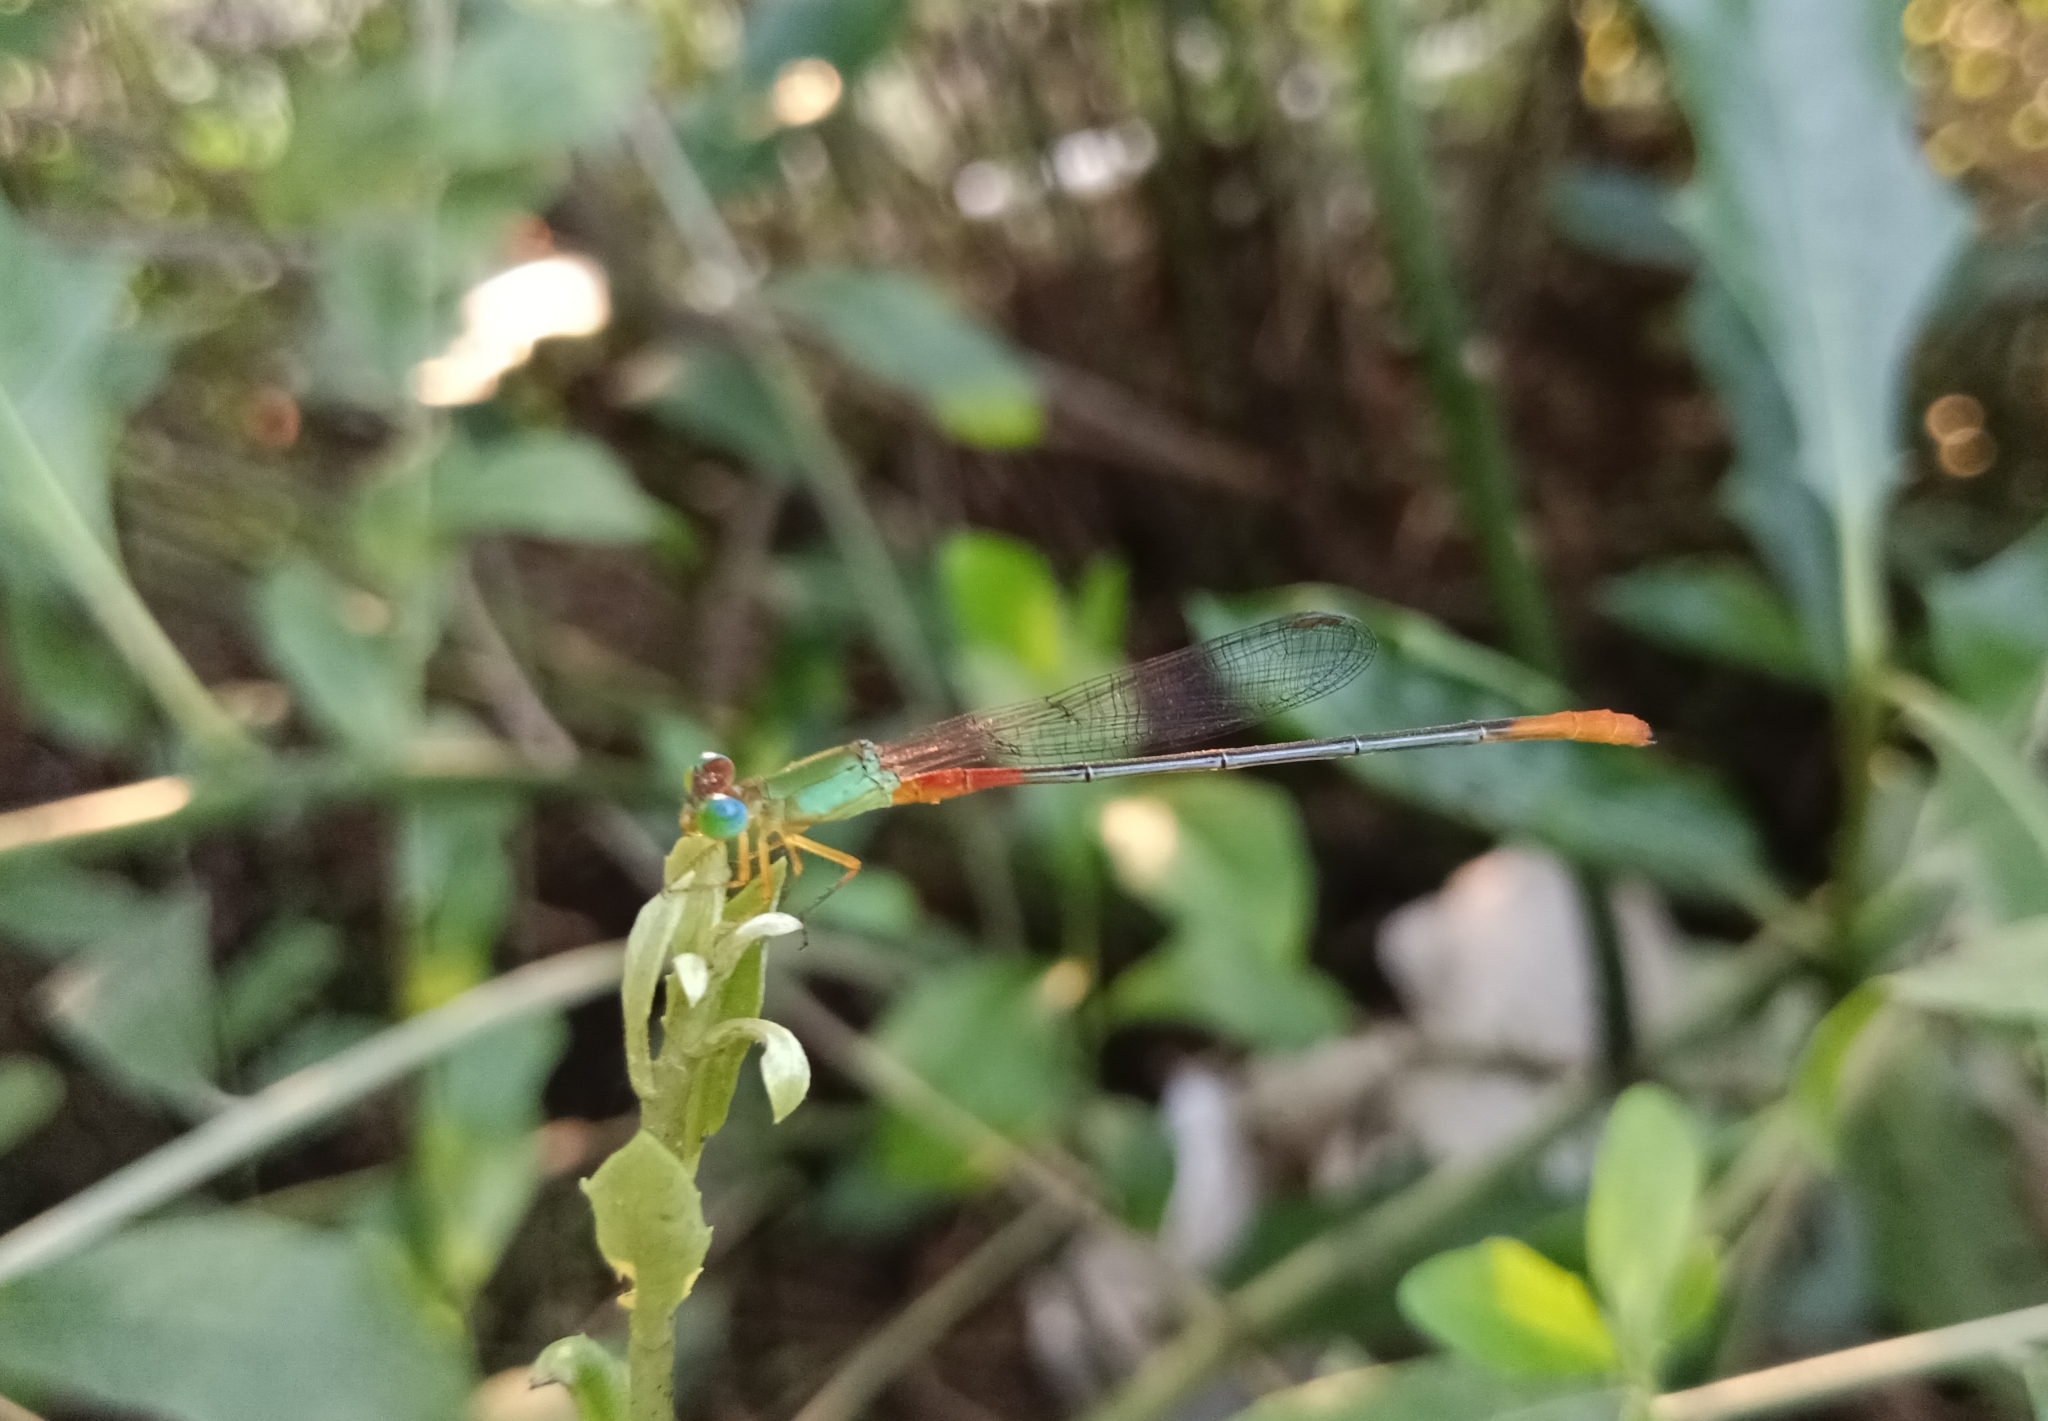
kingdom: Animalia
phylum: Arthropoda
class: Insecta
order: Odonata
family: Coenagrionidae
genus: Ceriagrion
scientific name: Ceriagrion cerinorubellum
